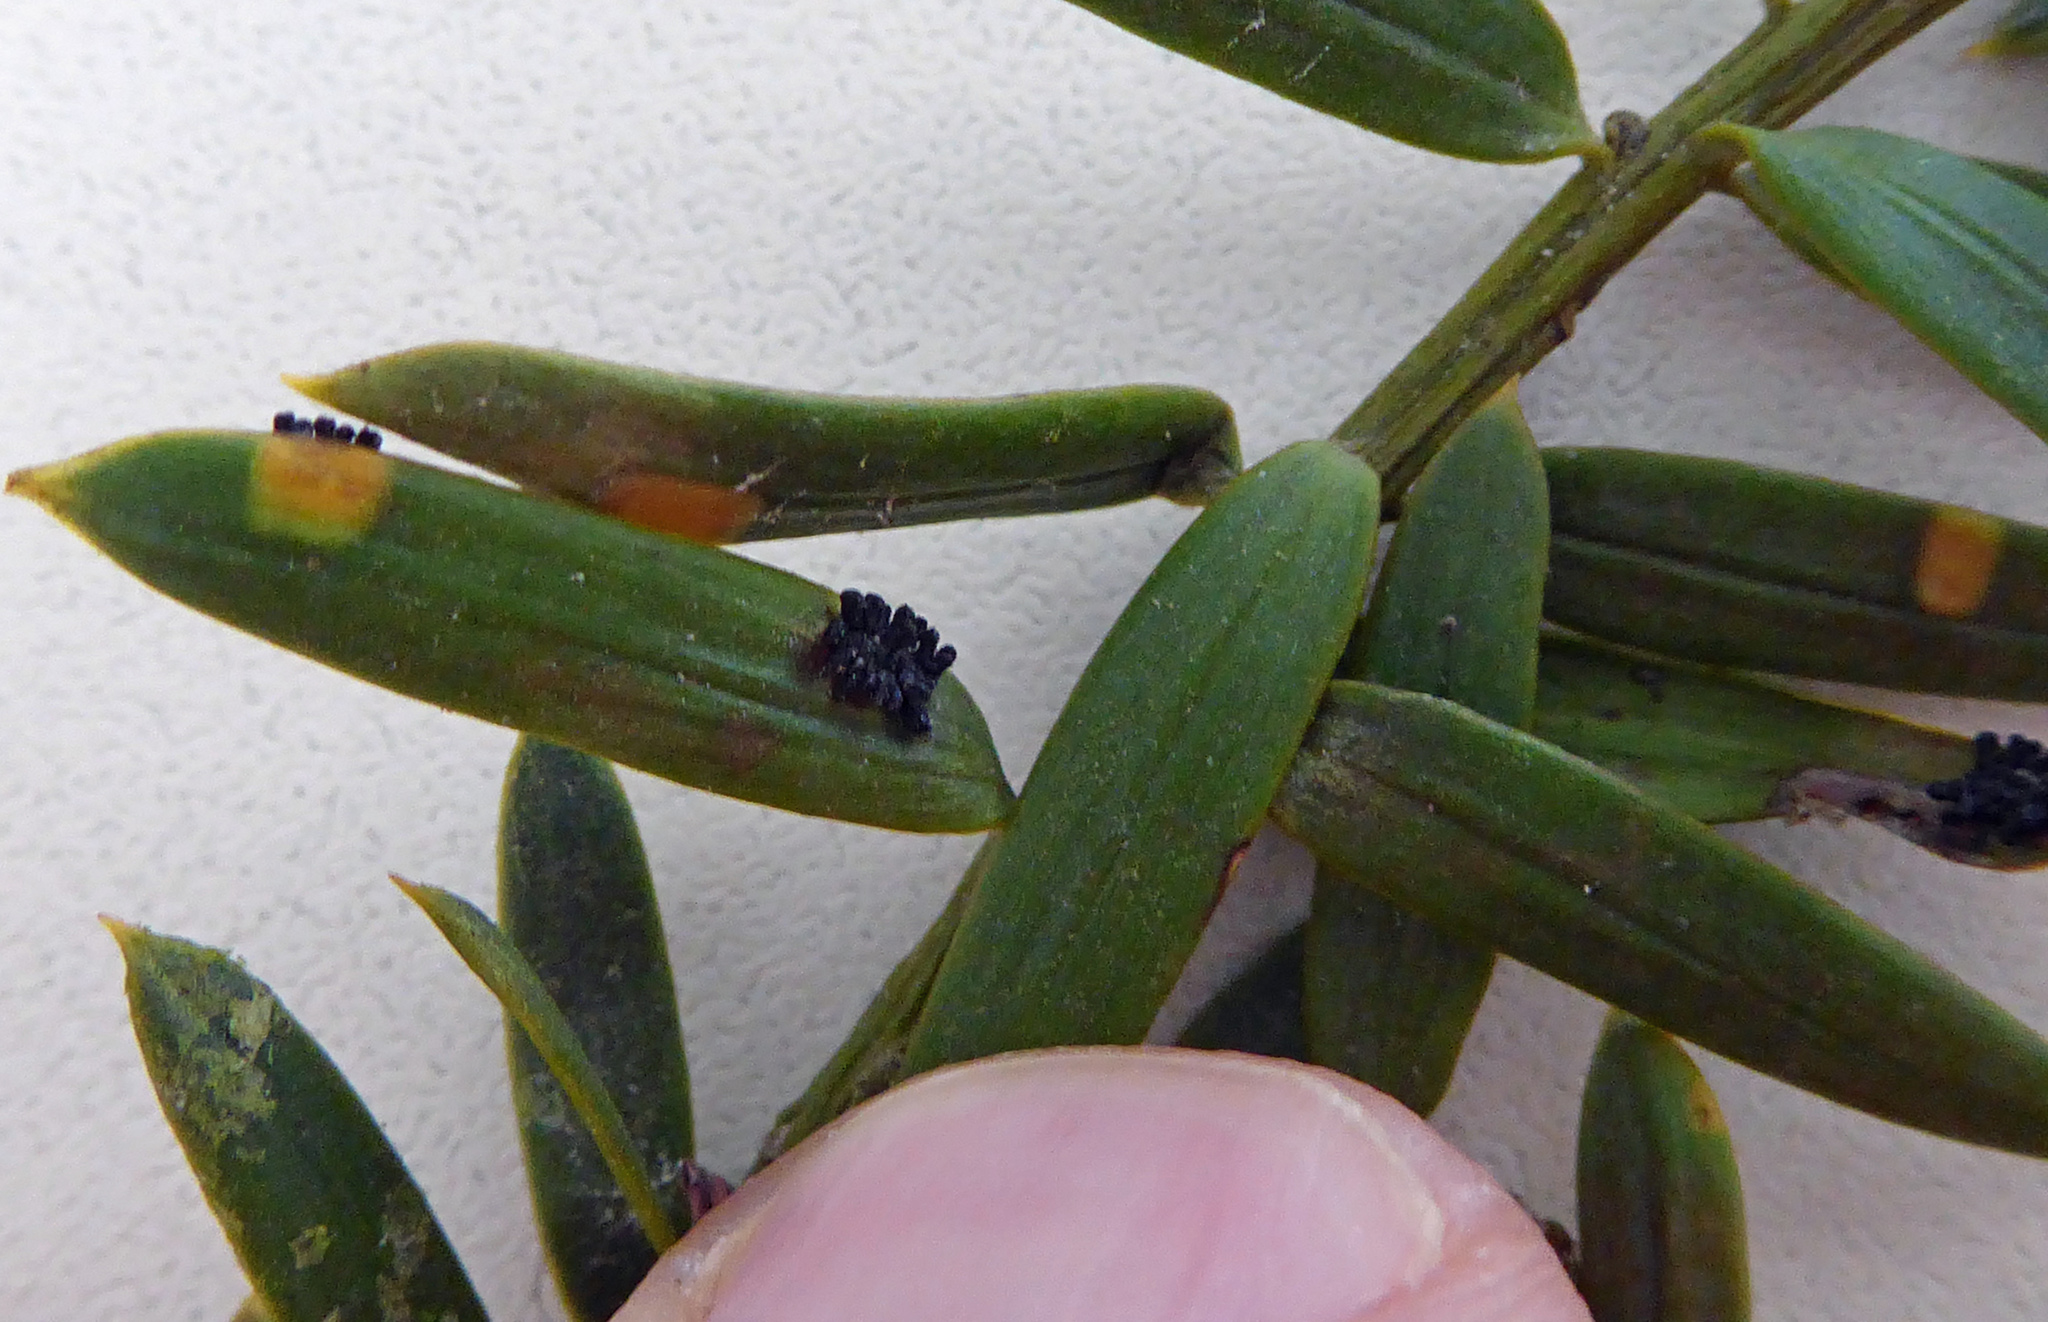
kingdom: Fungi
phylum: Ascomycota
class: Eurotiomycetes
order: Coryneliales
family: Coryneliaceae
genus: Corynelia
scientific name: Corynelia tropica
